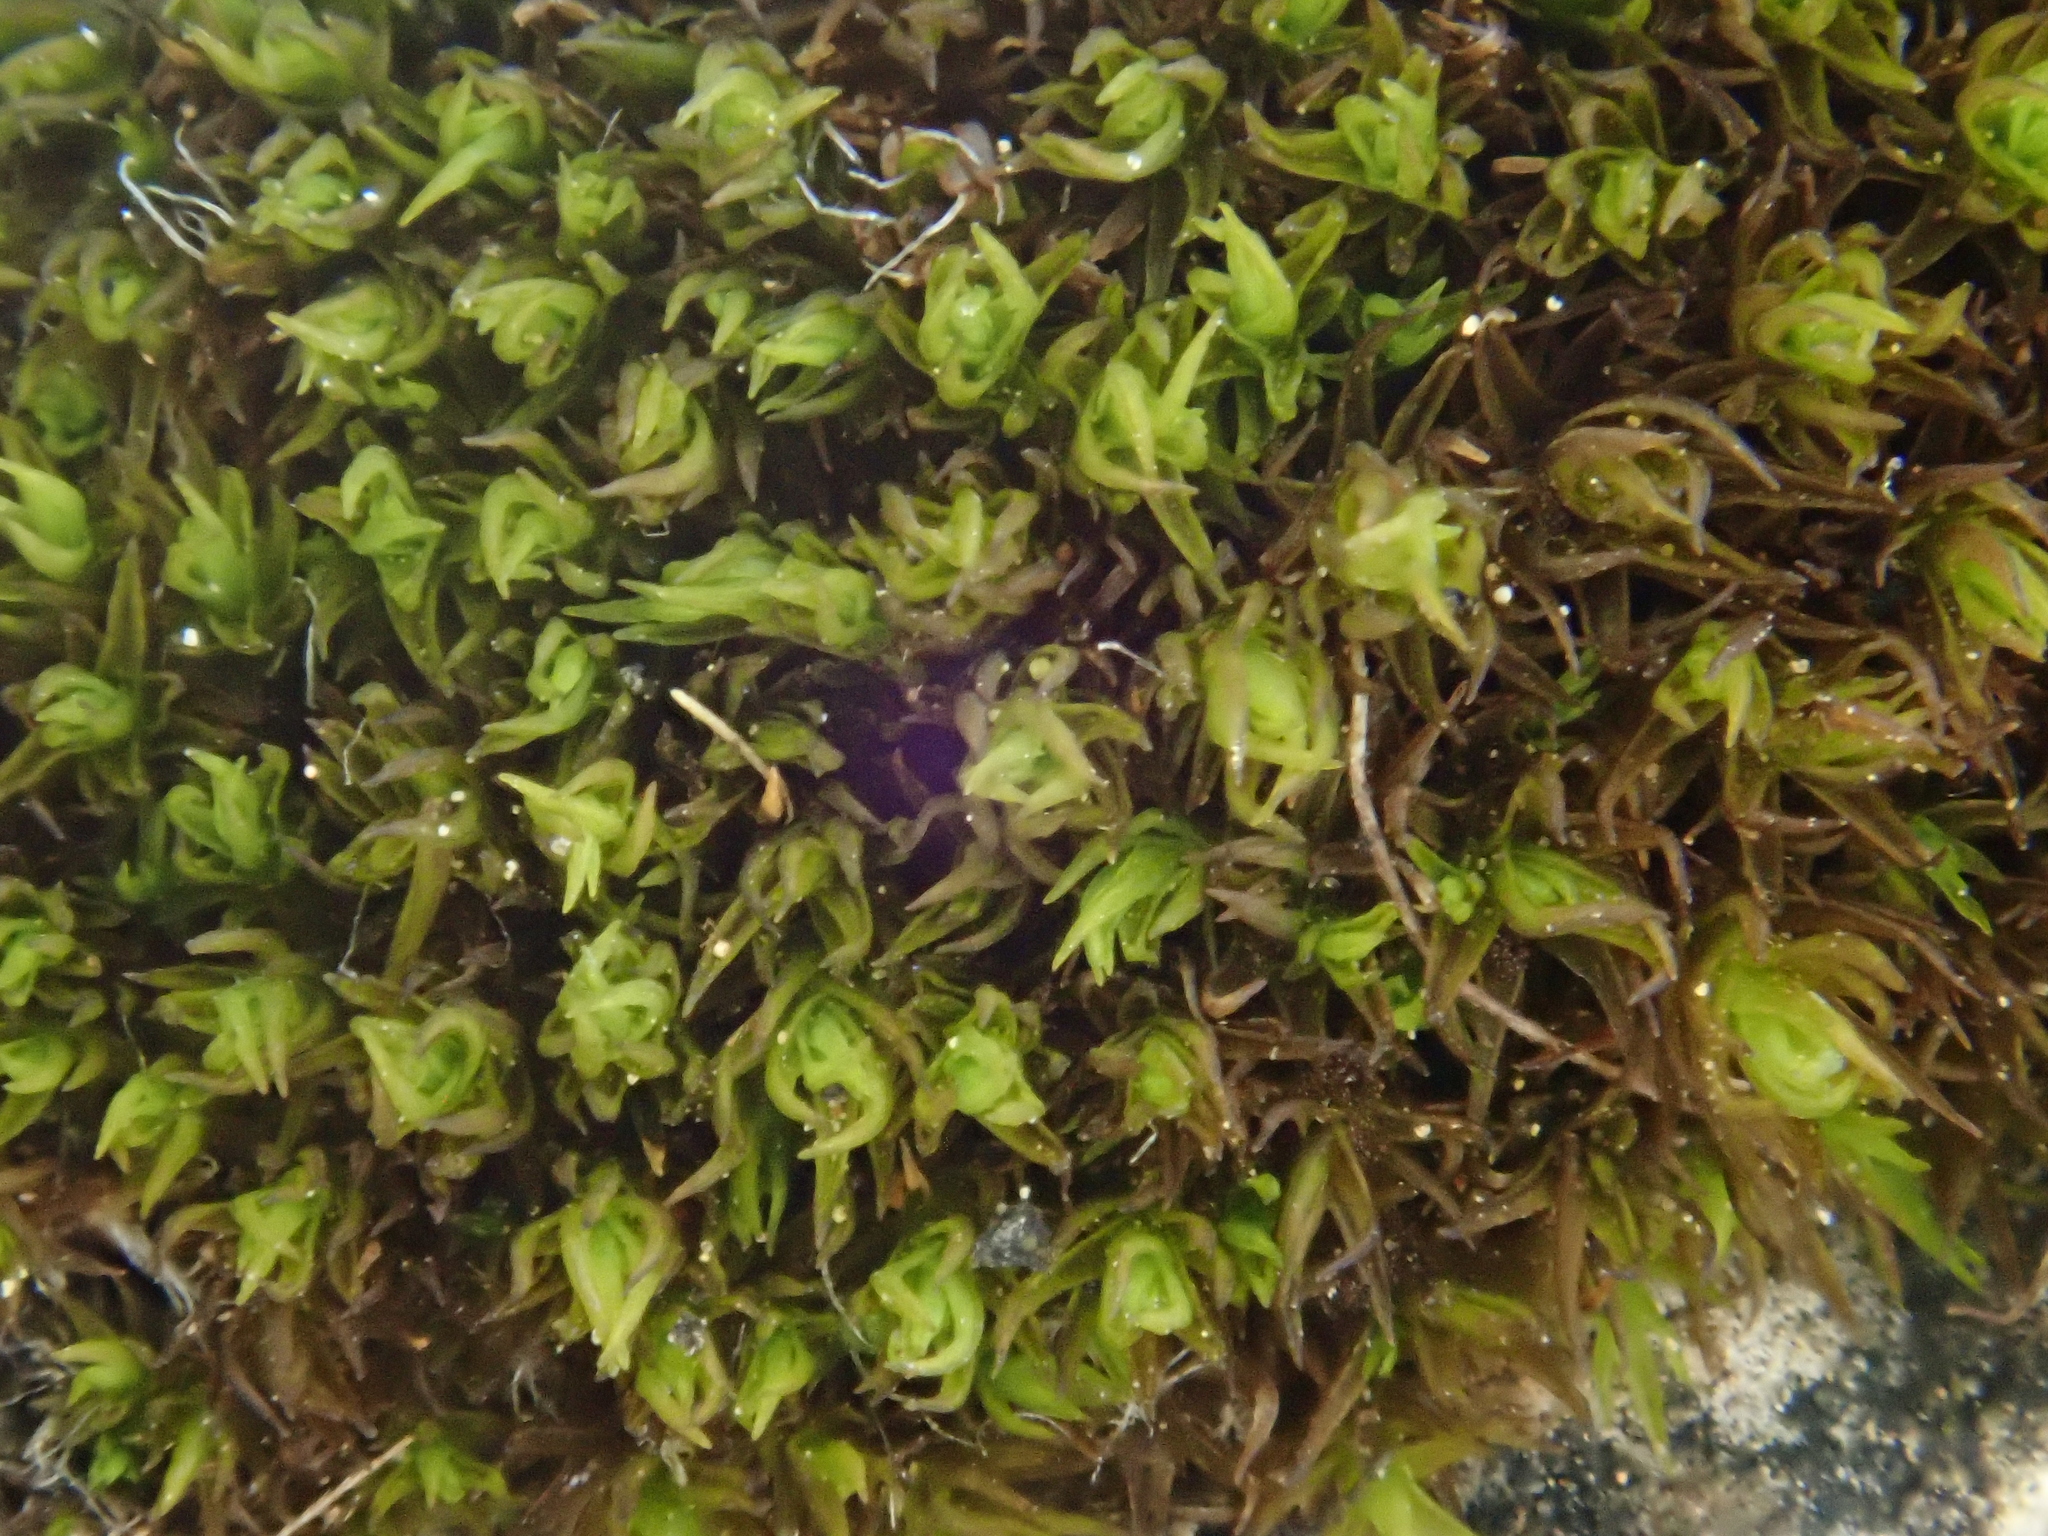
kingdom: Plantae
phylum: Bryophyta
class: Bryopsida
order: Pottiales
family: Pottiaceae
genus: Didymodon
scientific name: Didymodon rigidulus
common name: Rigid beard-moss
